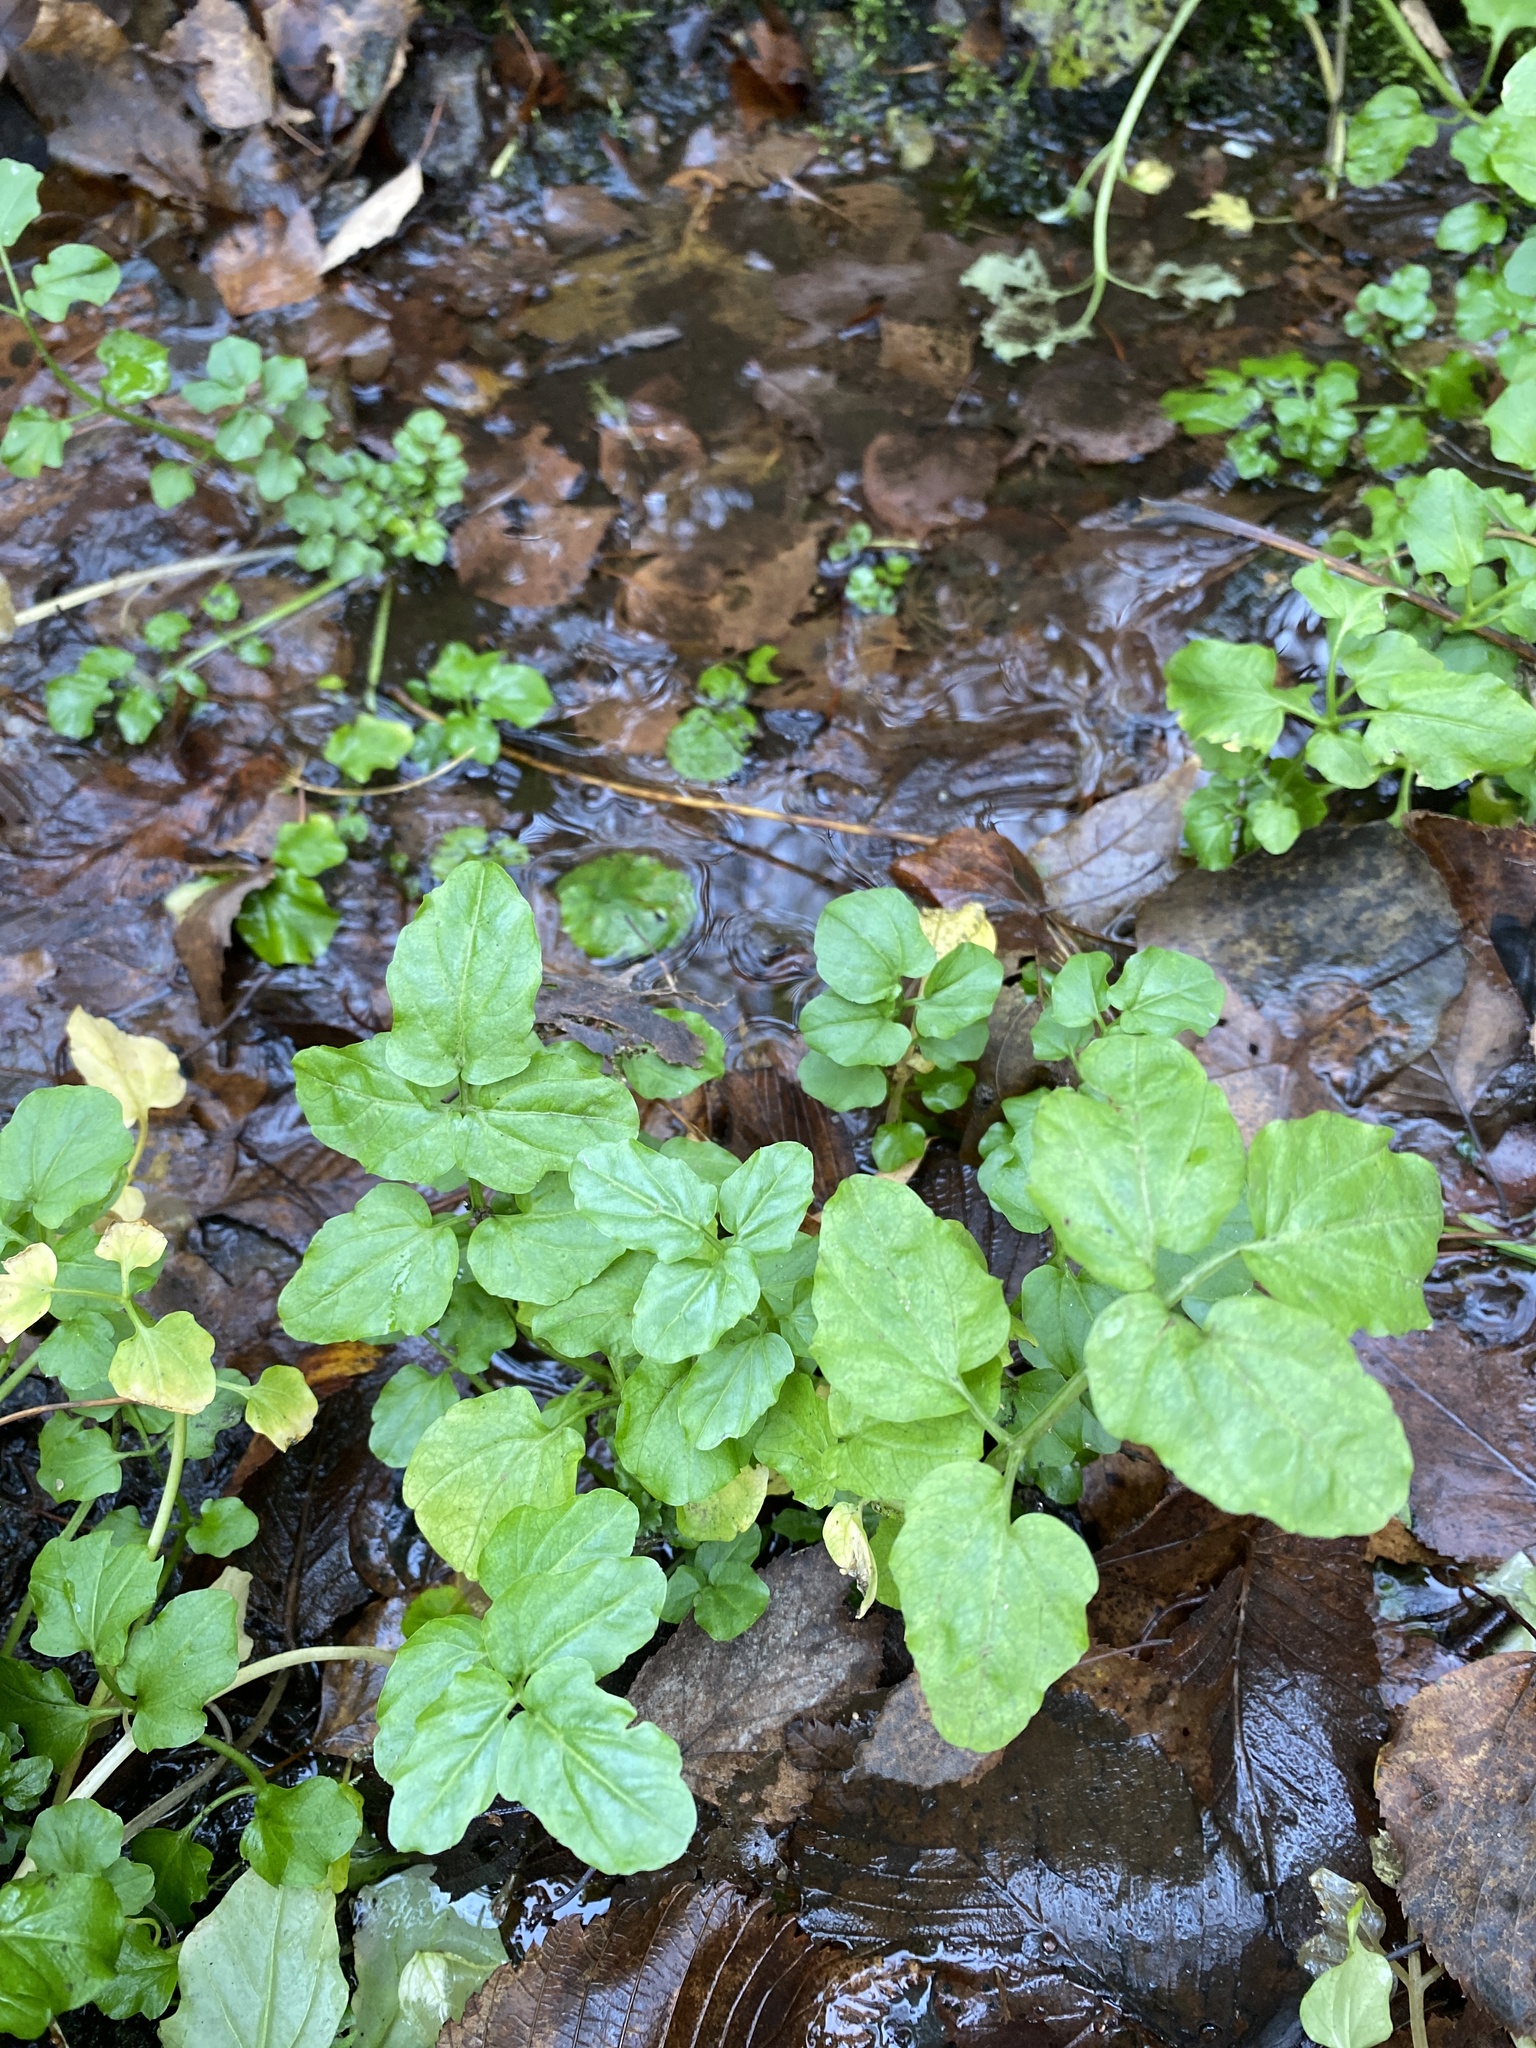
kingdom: Plantae
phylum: Tracheophyta
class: Magnoliopsida
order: Brassicales
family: Brassicaceae
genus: Cardamine
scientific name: Cardamine amara
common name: Large bitter-cress
